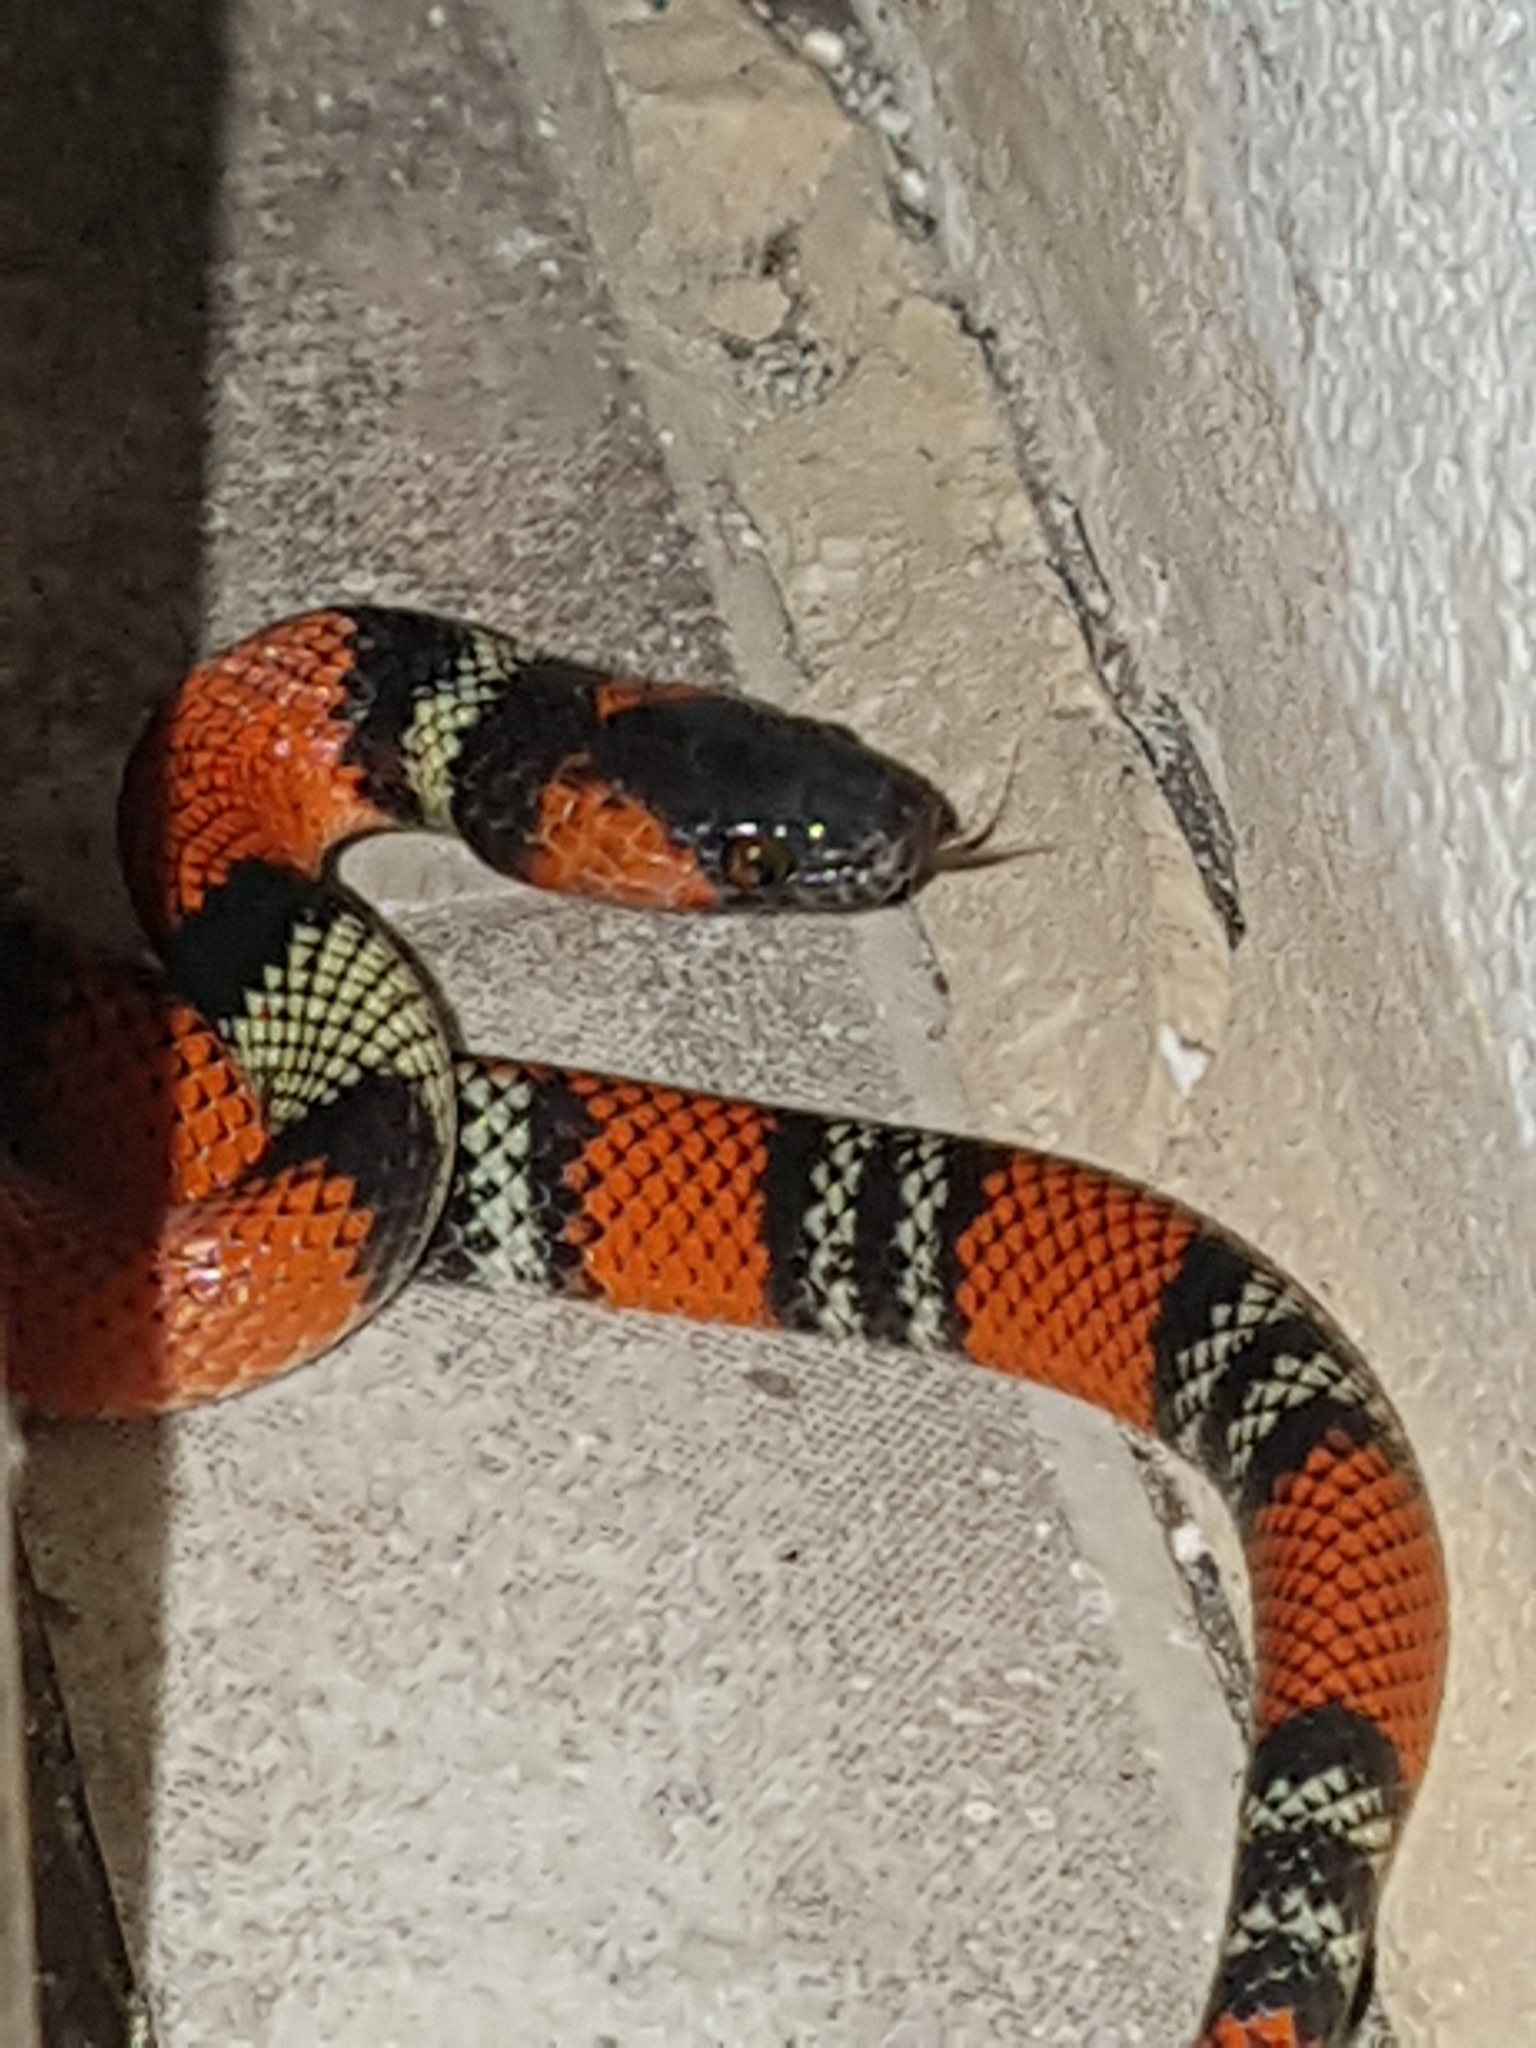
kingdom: Animalia
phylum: Chordata
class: Squamata
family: Colubridae
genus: Oxyrhopus
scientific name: Oxyrhopus guibei
